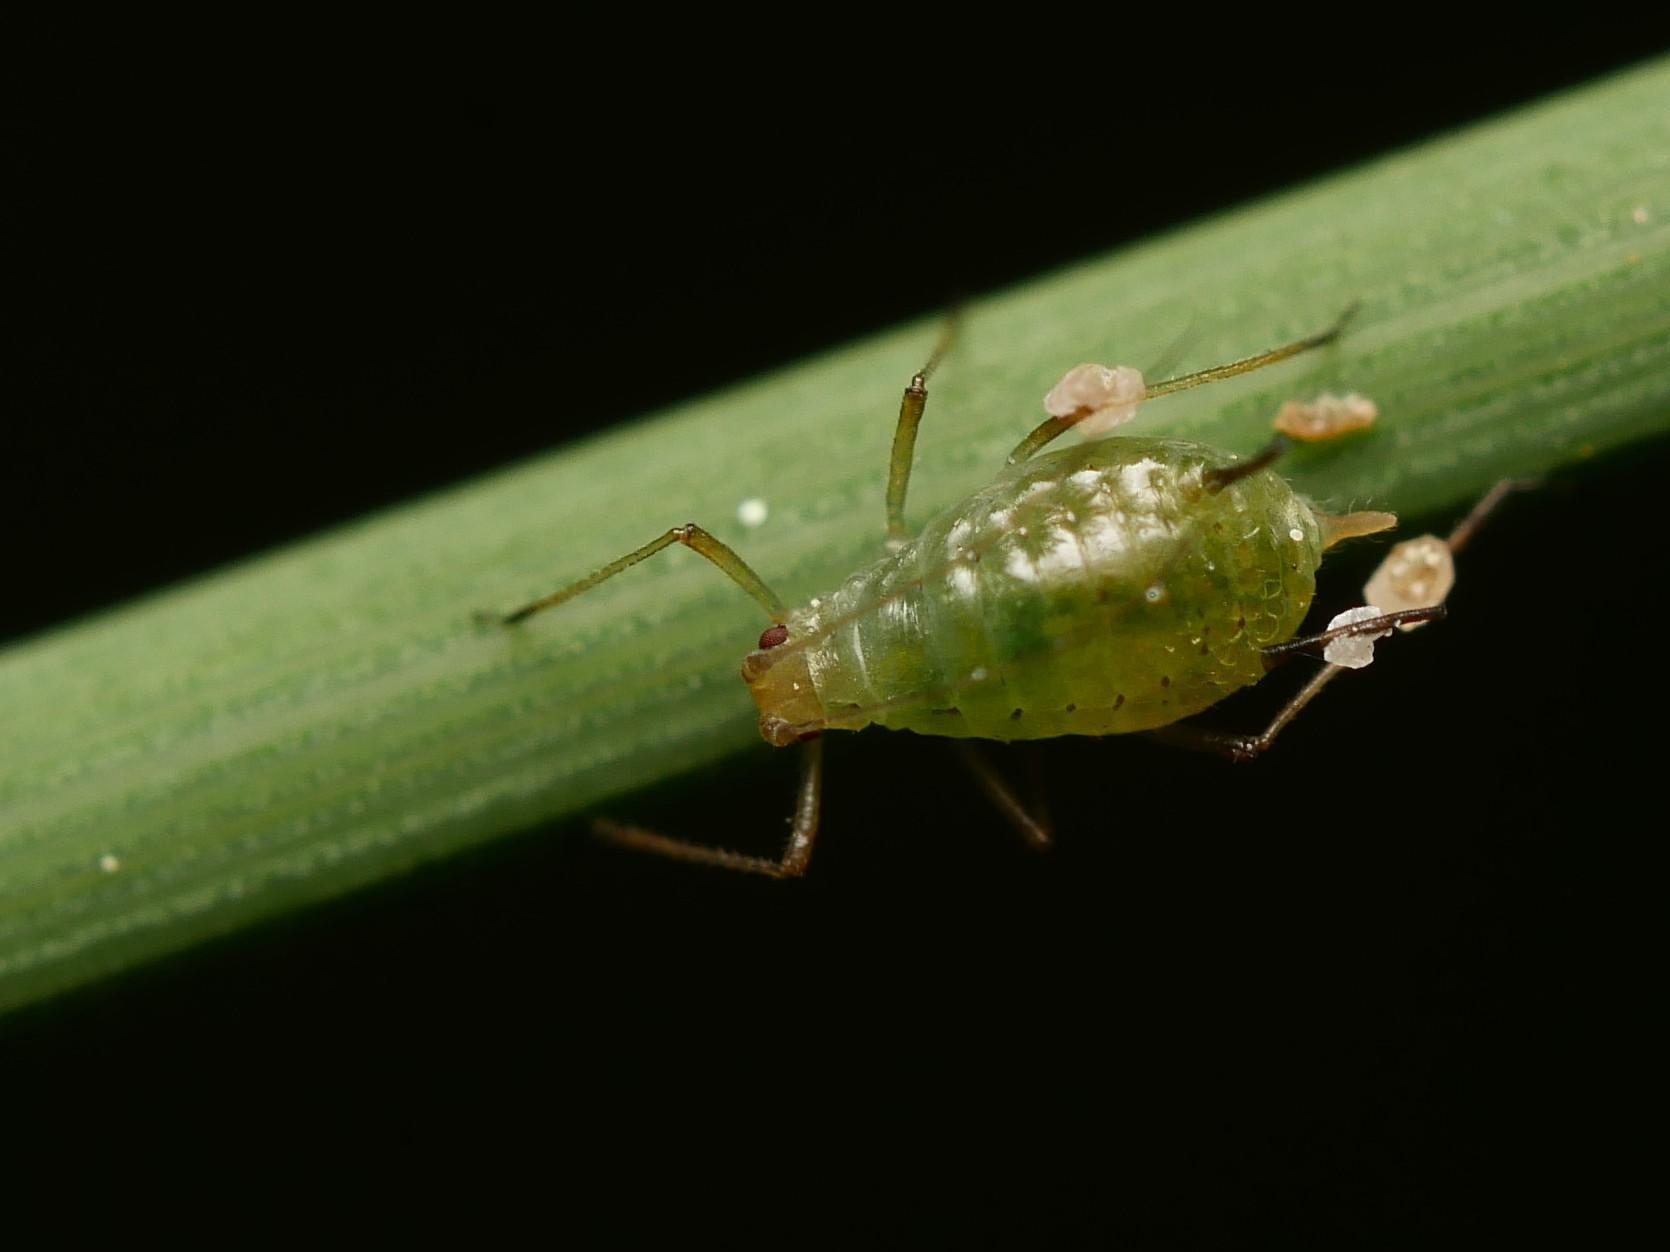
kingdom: Animalia
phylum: Arthropoda
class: Insecta
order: Hemiptera
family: Aphididae
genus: Sitobion
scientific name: Sitobion fragariae
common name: Blackberry cereal aphid
